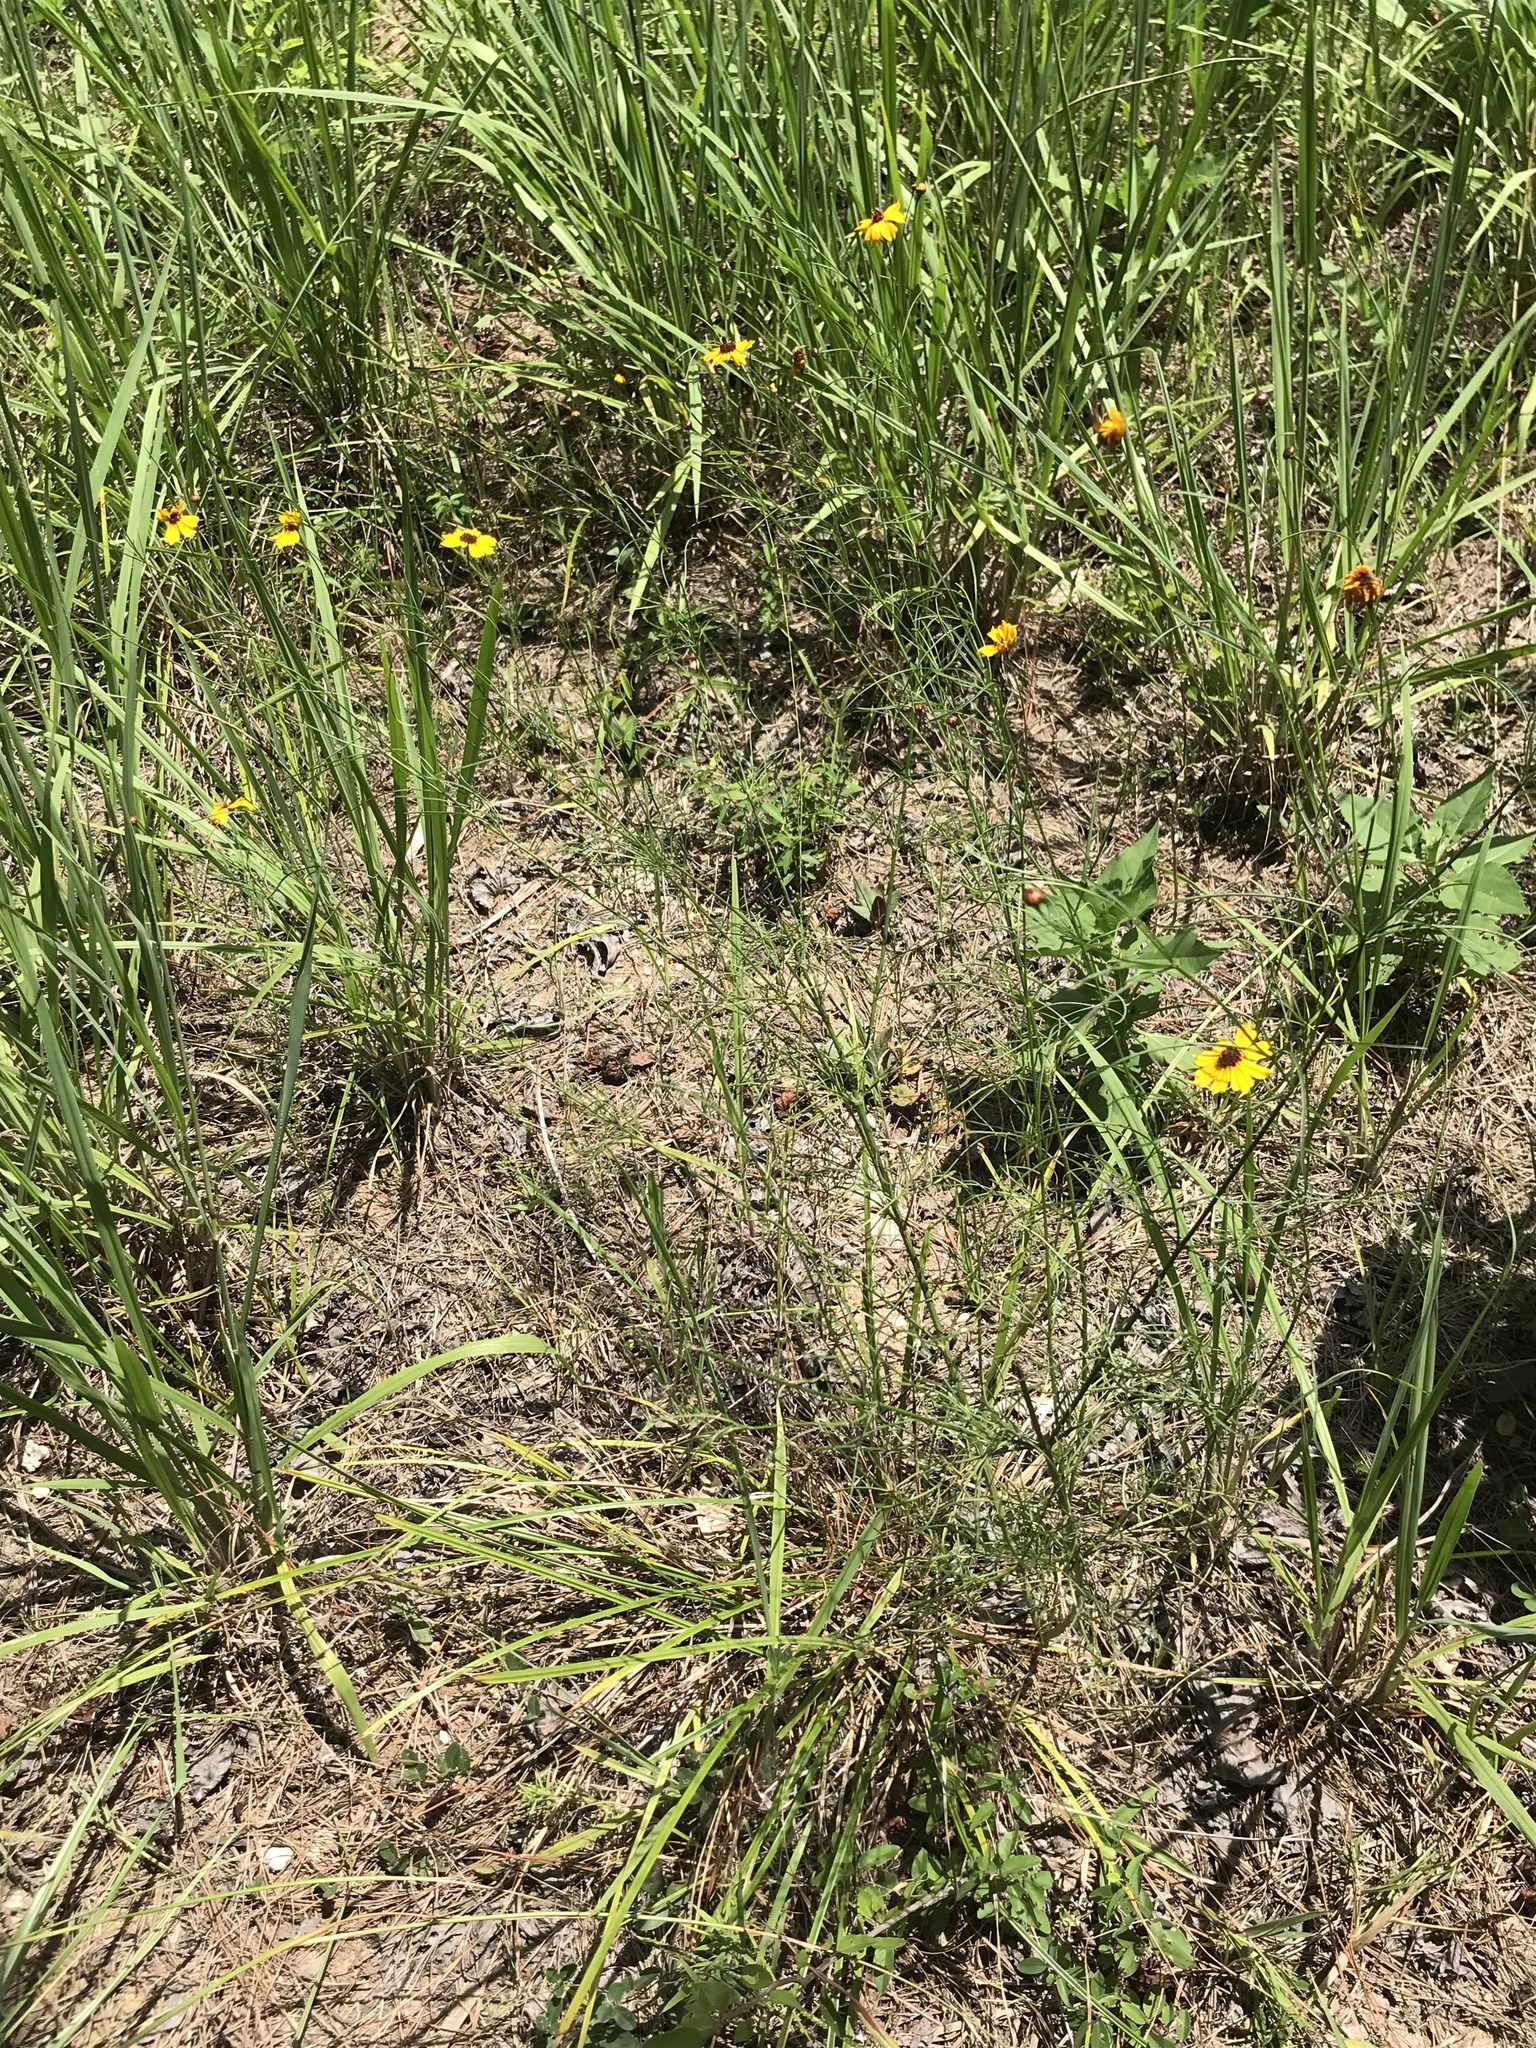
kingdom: Plantae
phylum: Tracheophyta
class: Magnoliopsida
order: Asterales
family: Asteraceae
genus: Coreopsis
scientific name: Coreopsis gladiata
